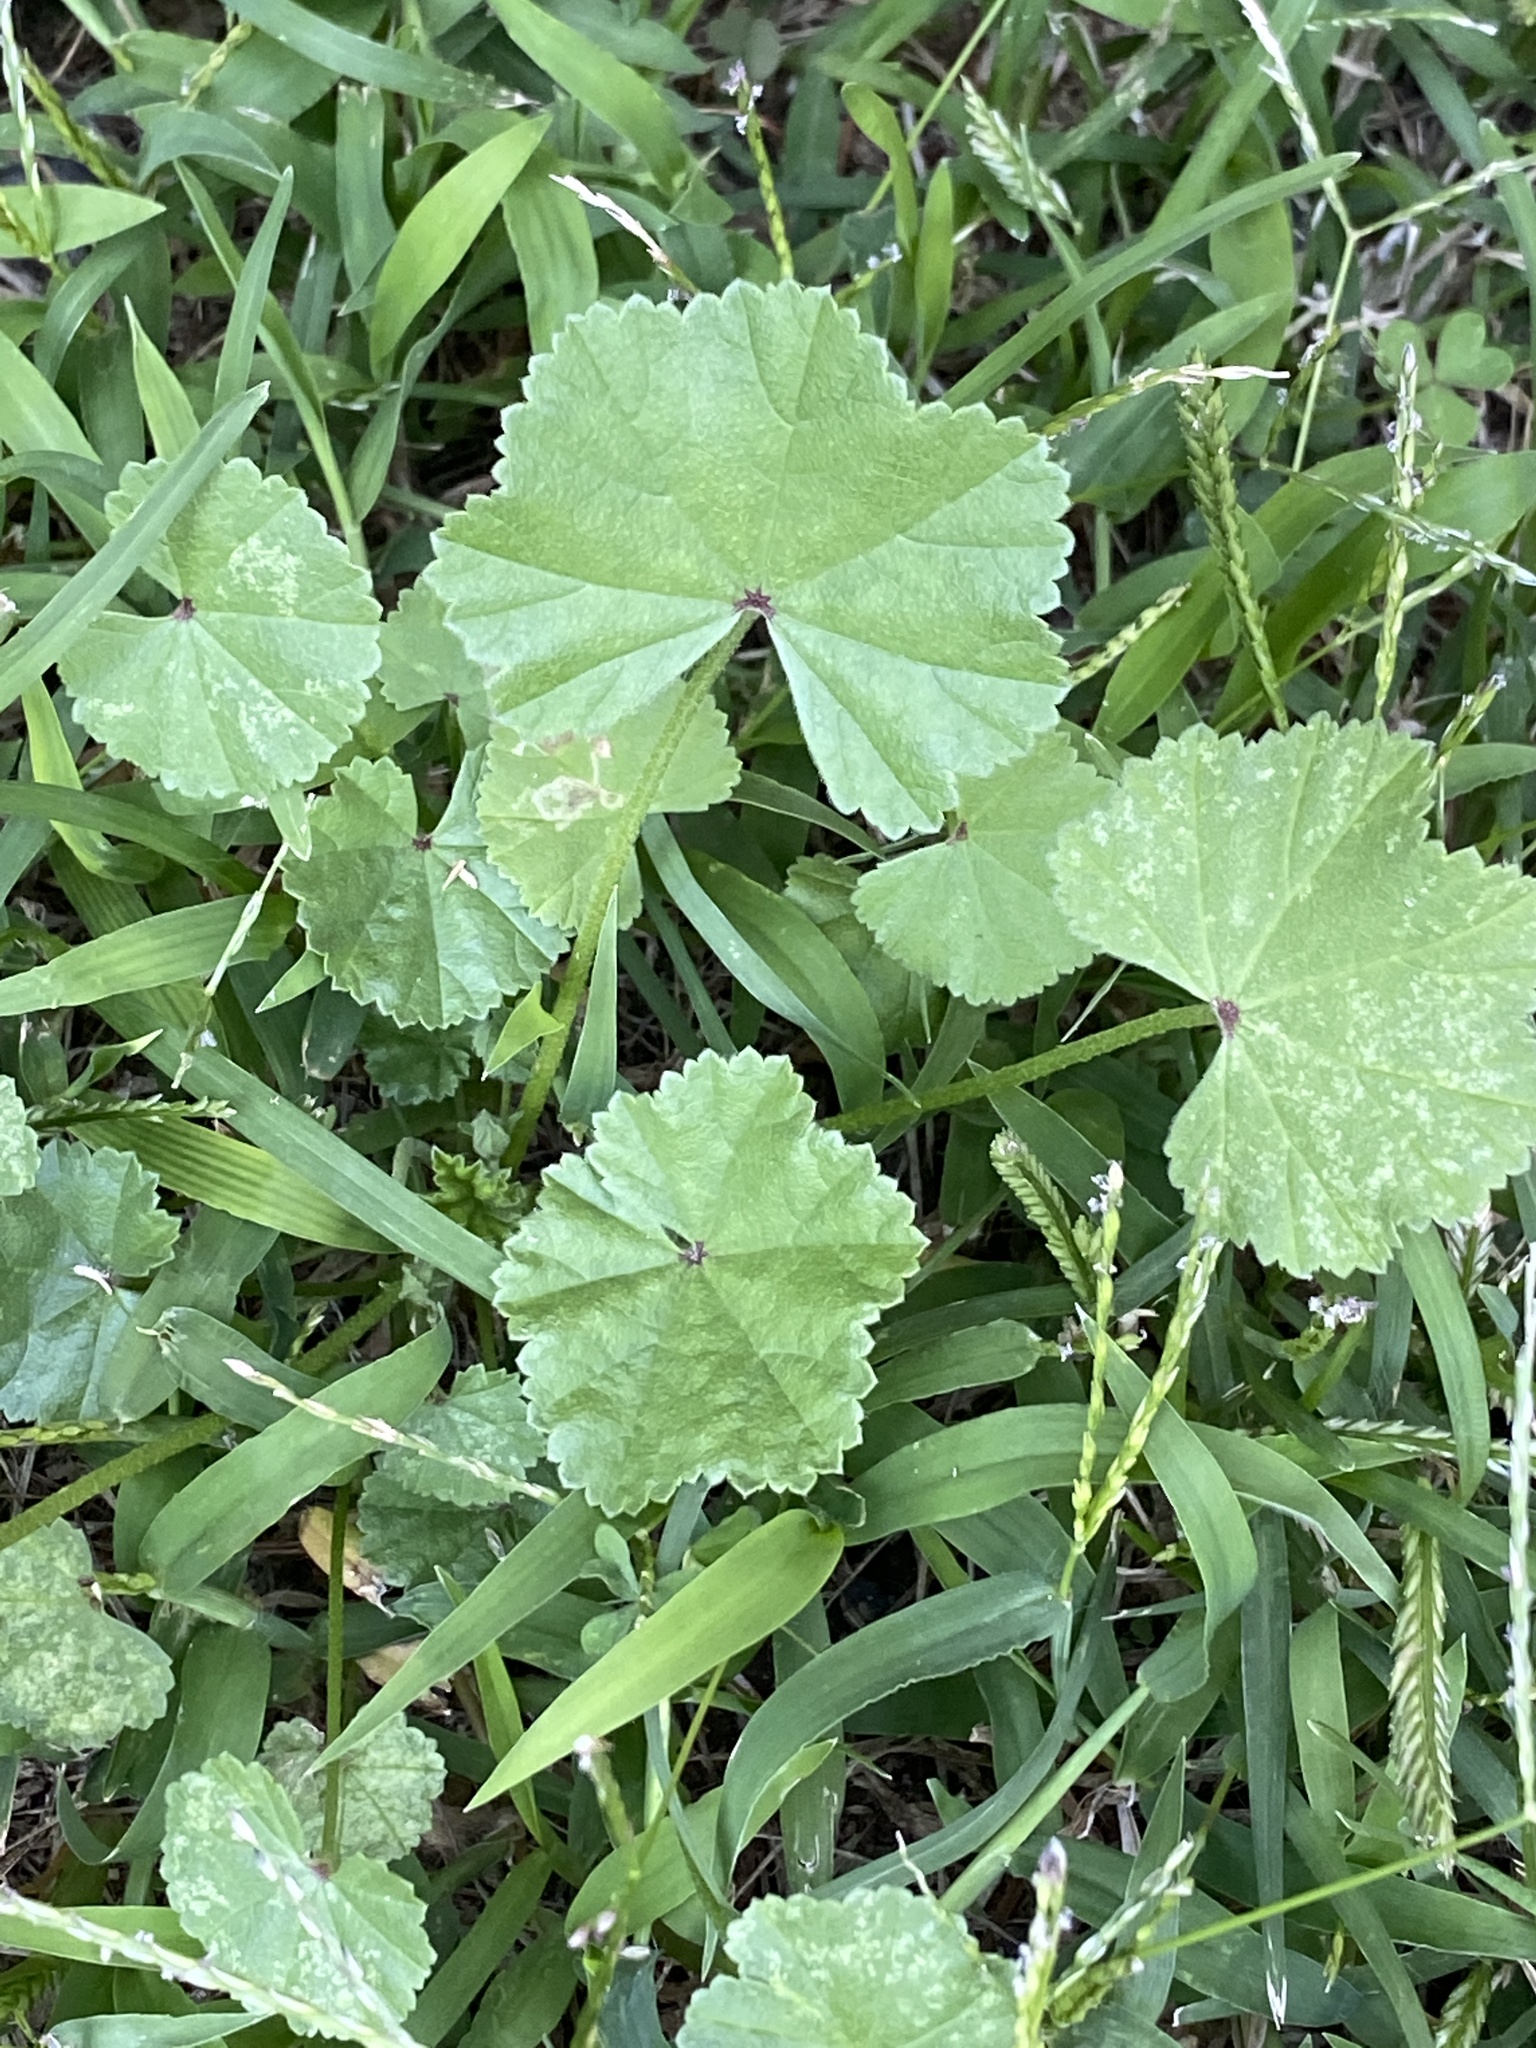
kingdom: Plantae
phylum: Tracheophyta
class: Magnoliopsida
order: Malvales
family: Malvaceae
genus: Malva
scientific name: Malva neglecta
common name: Common mallow
